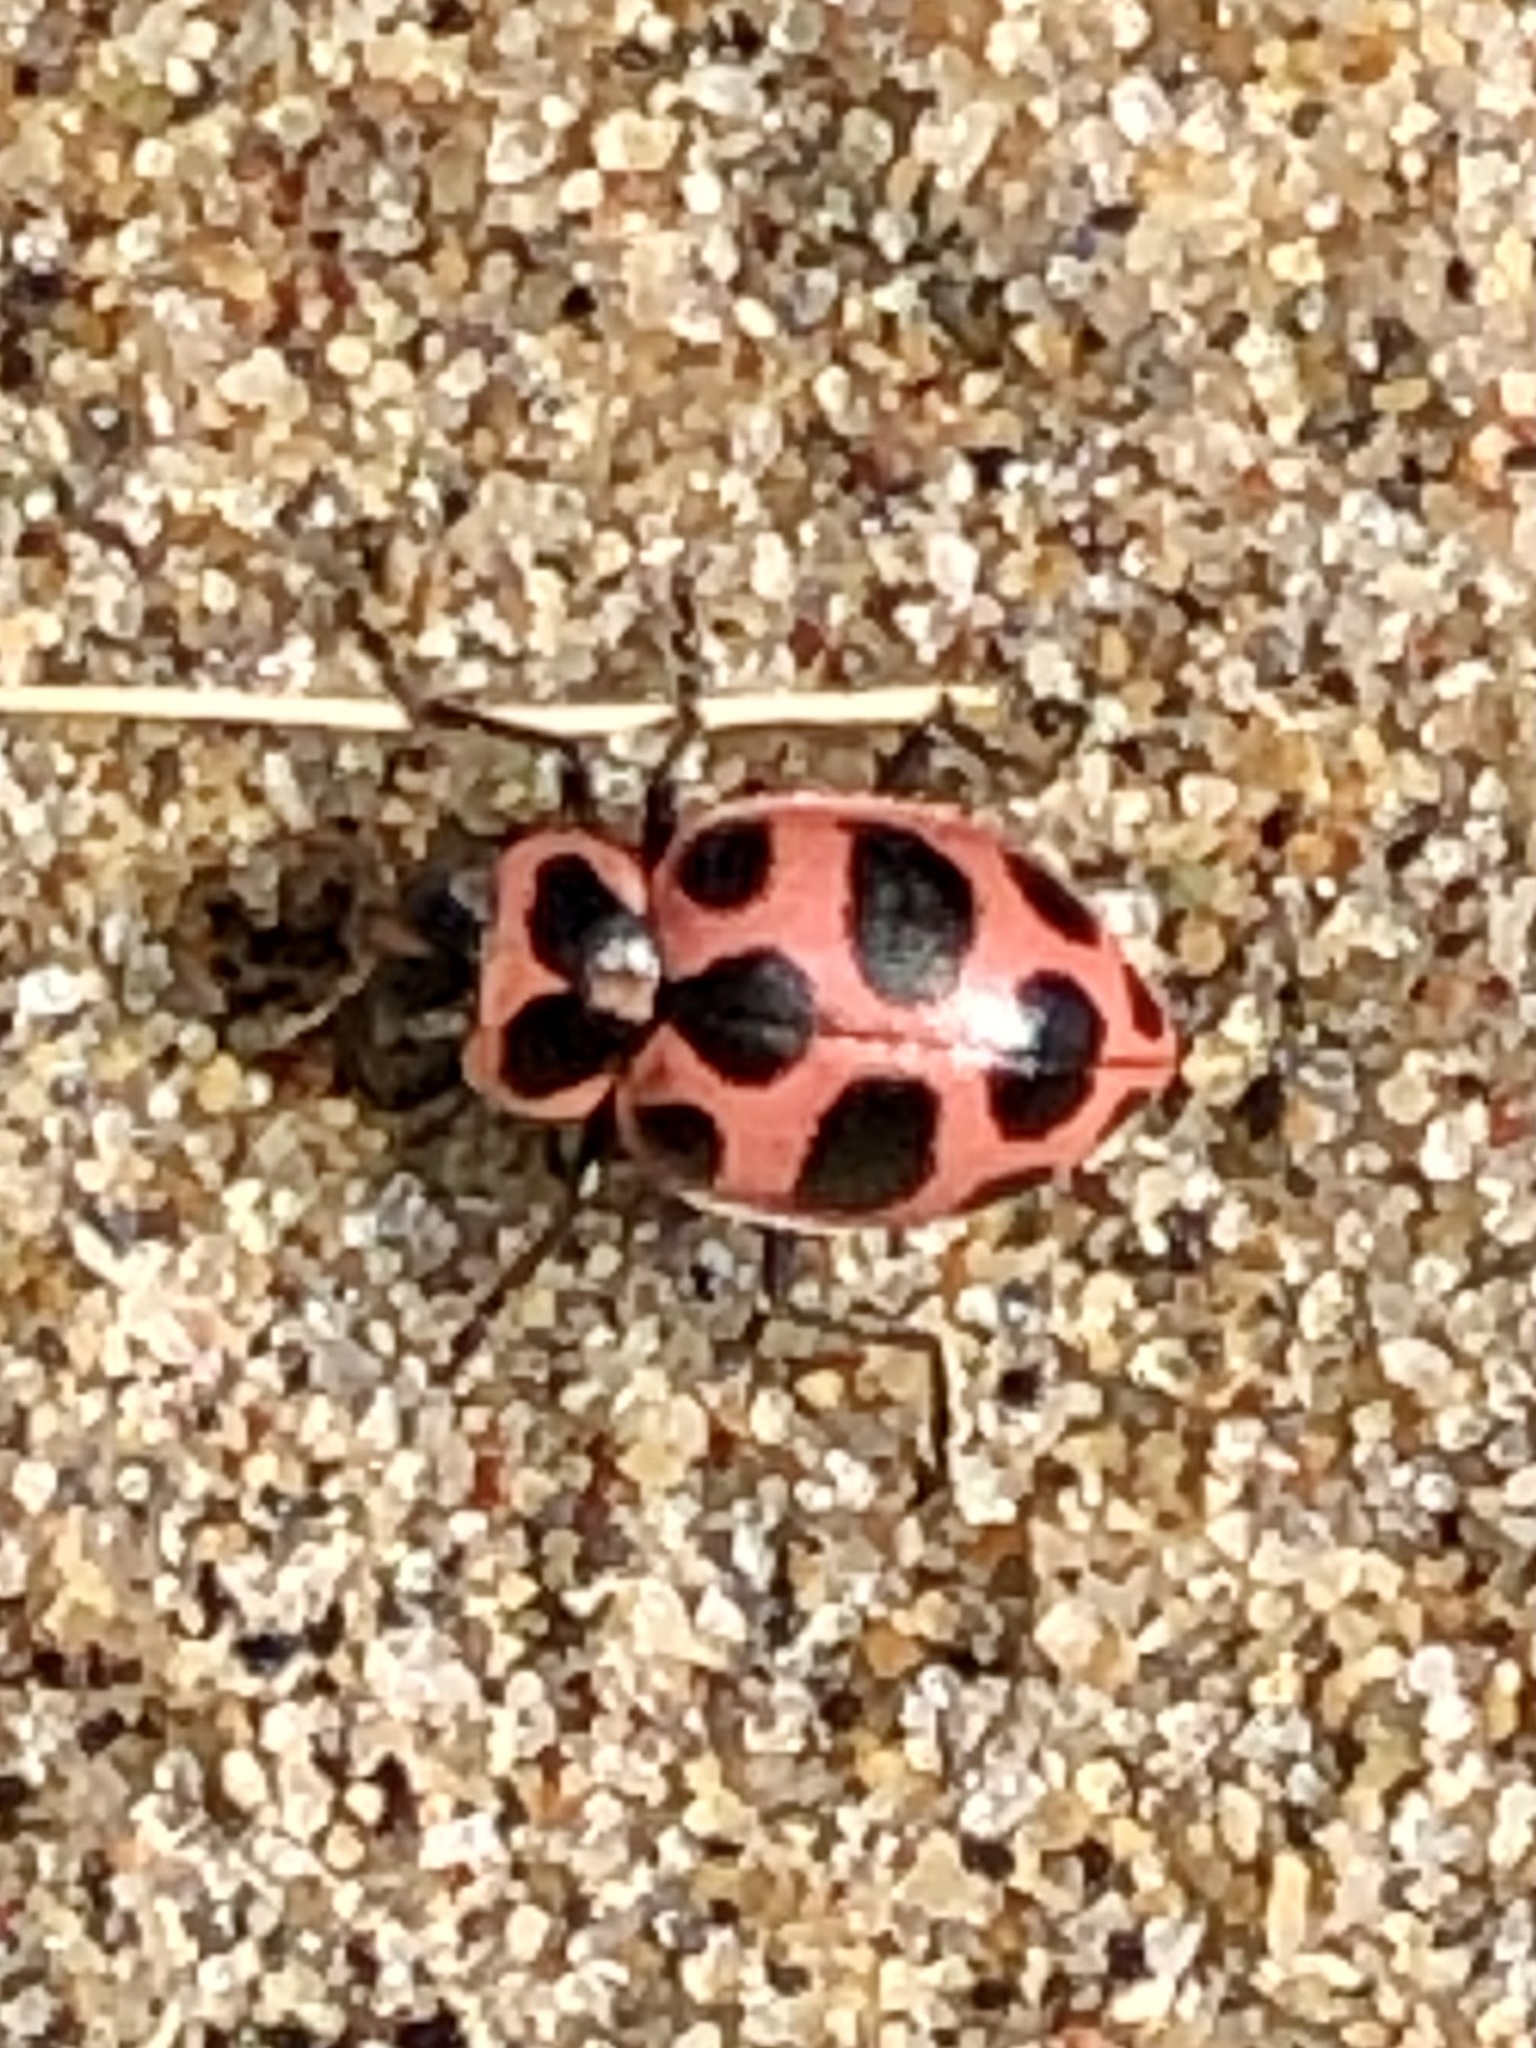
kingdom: Animalia
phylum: Arthropoda
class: Insecta
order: Coleoptera
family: Coccinellidae
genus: Coleomegilla
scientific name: Coleomegilla maculata
